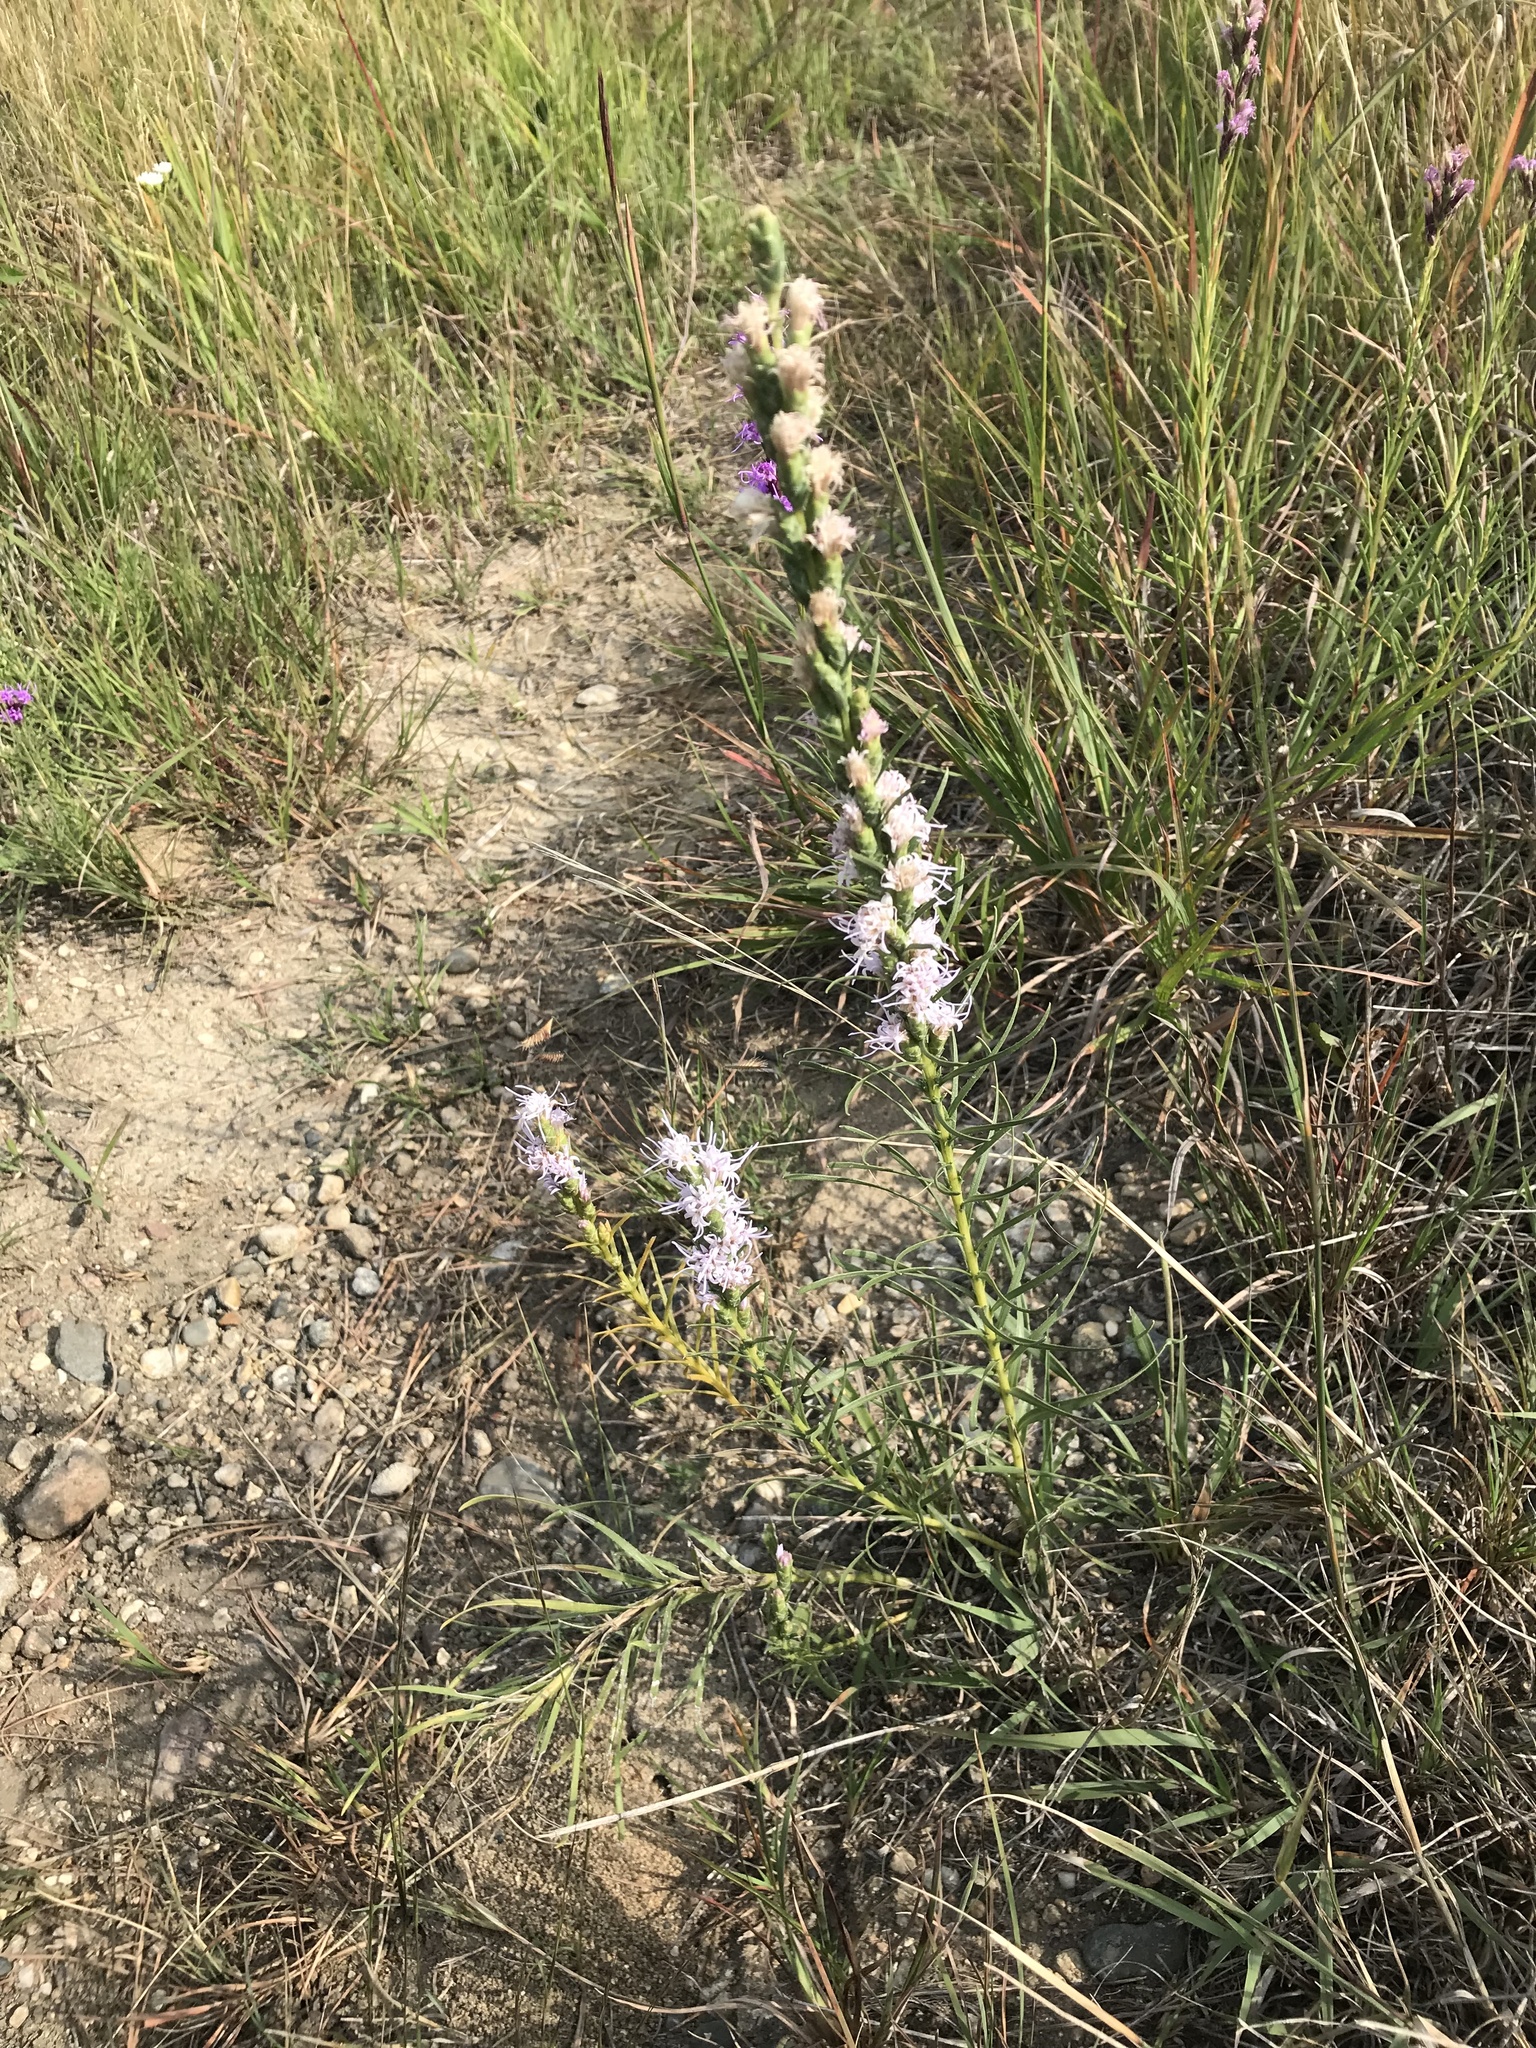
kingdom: Plantae
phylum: Tracheophyta
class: Magnoliopsida
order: Asterales
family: Asteraceae
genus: Liatris
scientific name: Liatris punctata
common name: Dotted gayfeather
